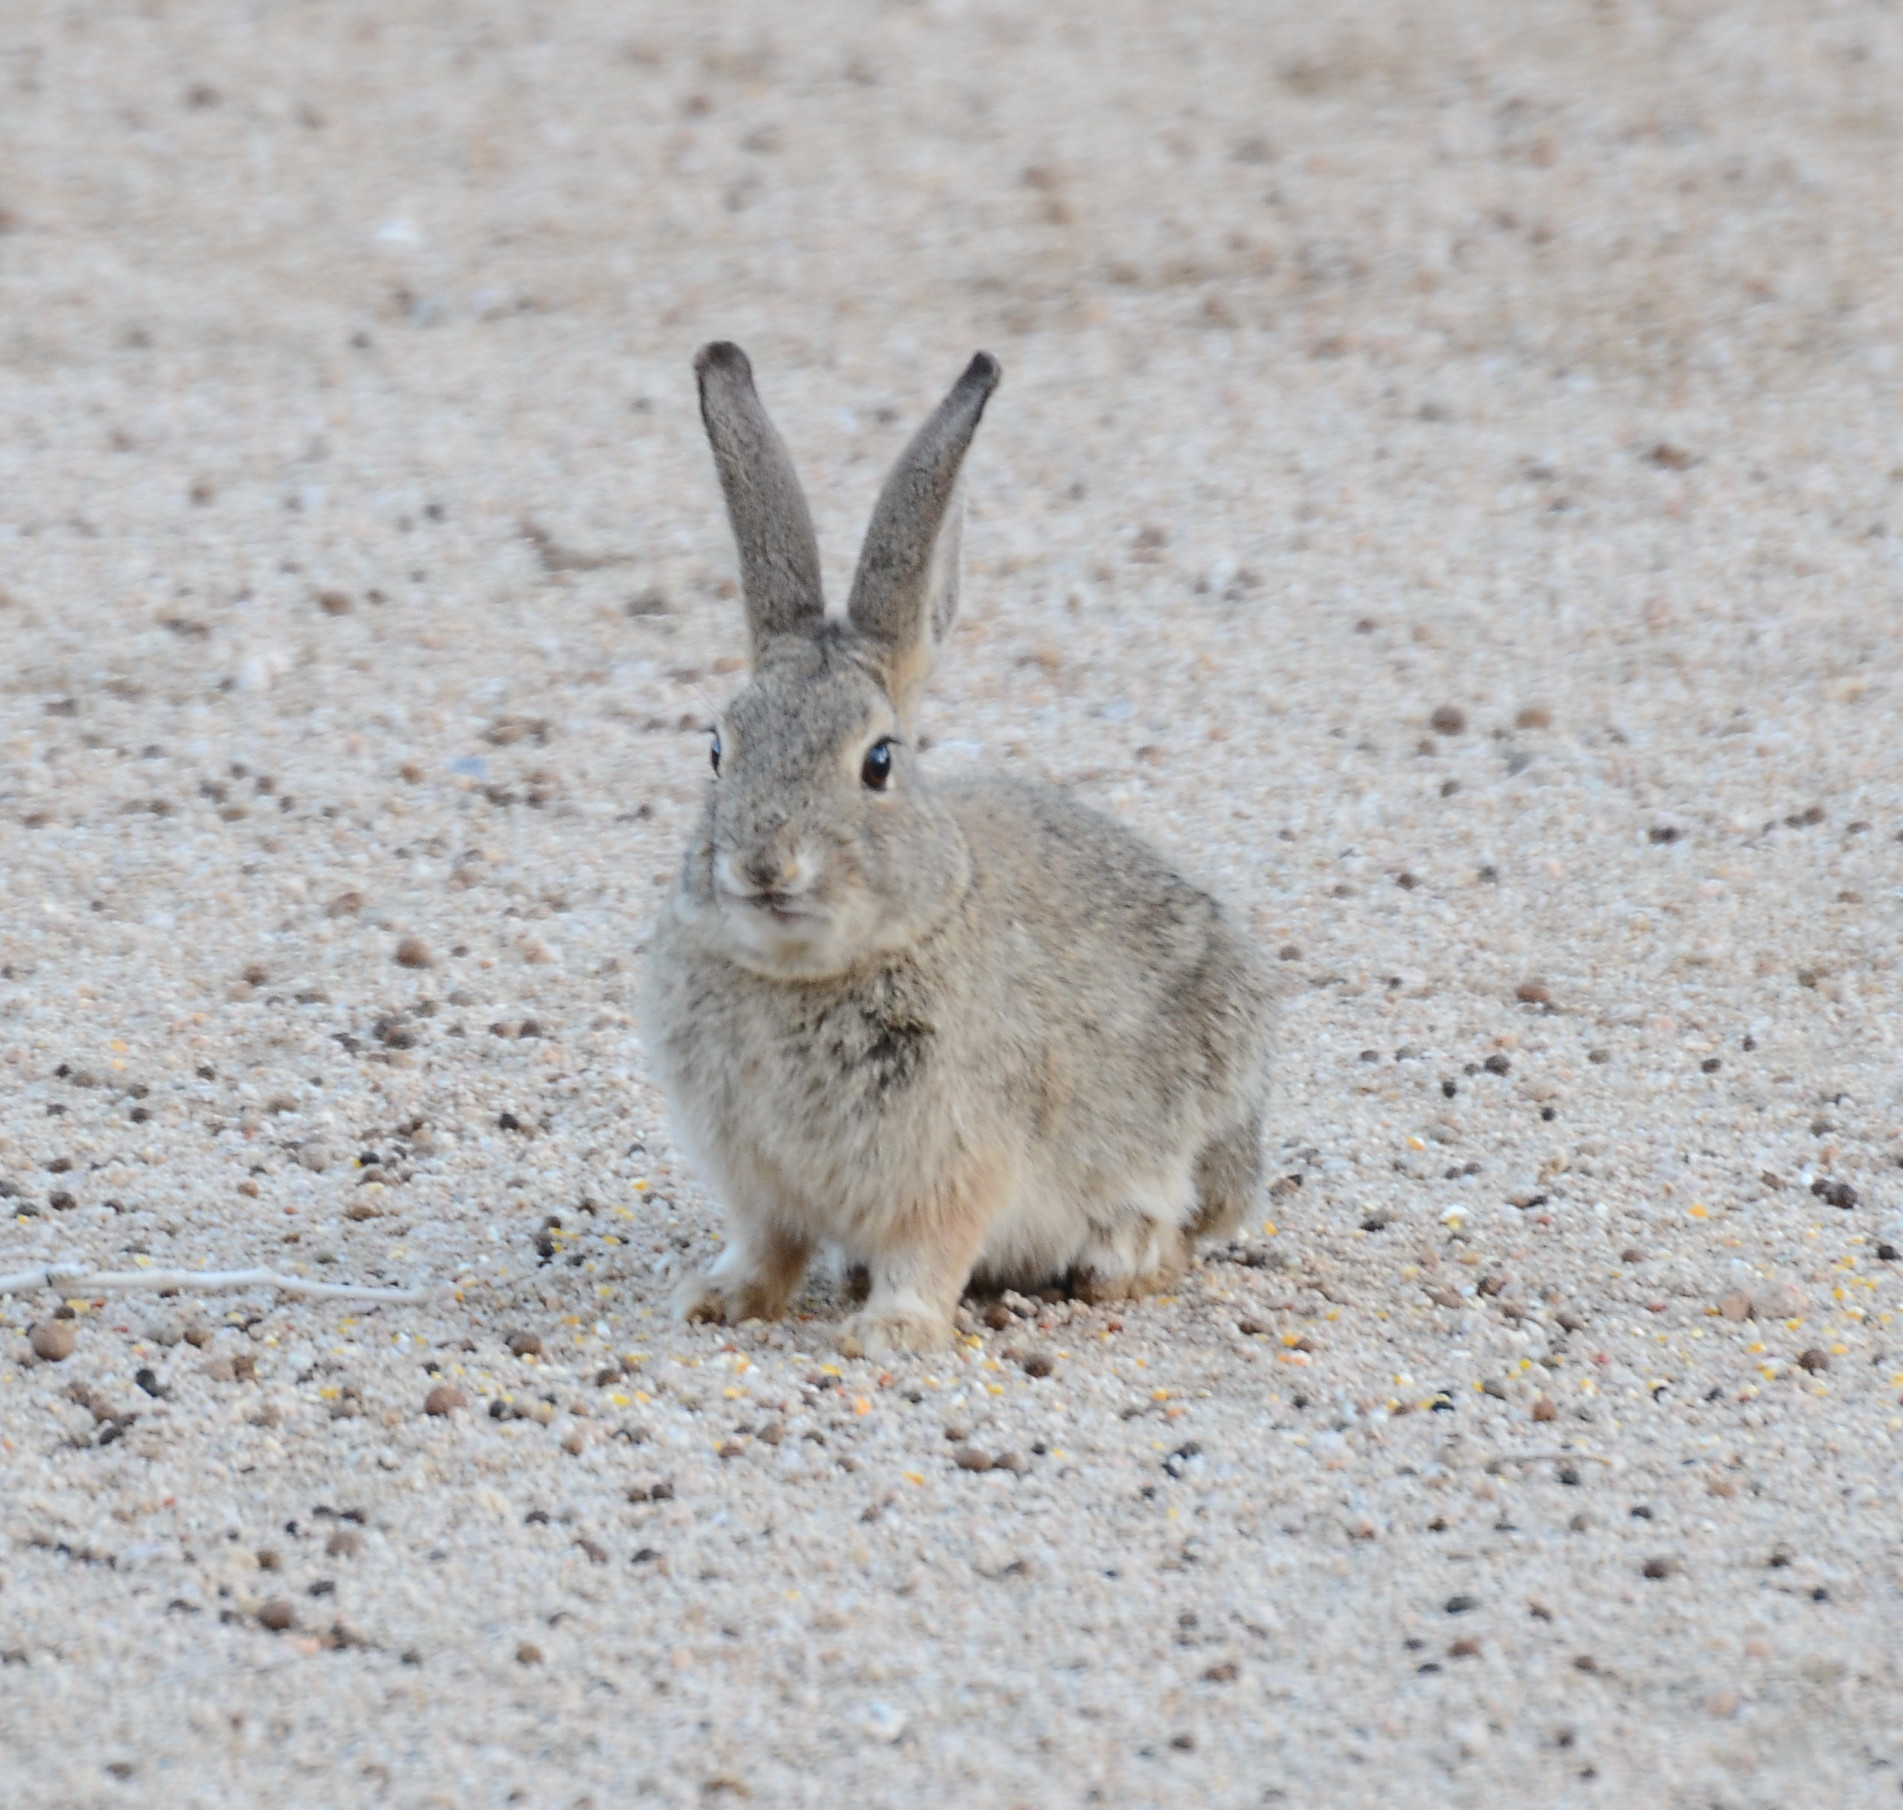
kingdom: Animalia
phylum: Chordata
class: Mammalia
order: Lagomorpha
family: Leporidae
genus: Sylvilagus
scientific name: Sylvilagus audubonii
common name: Desert cottontail
